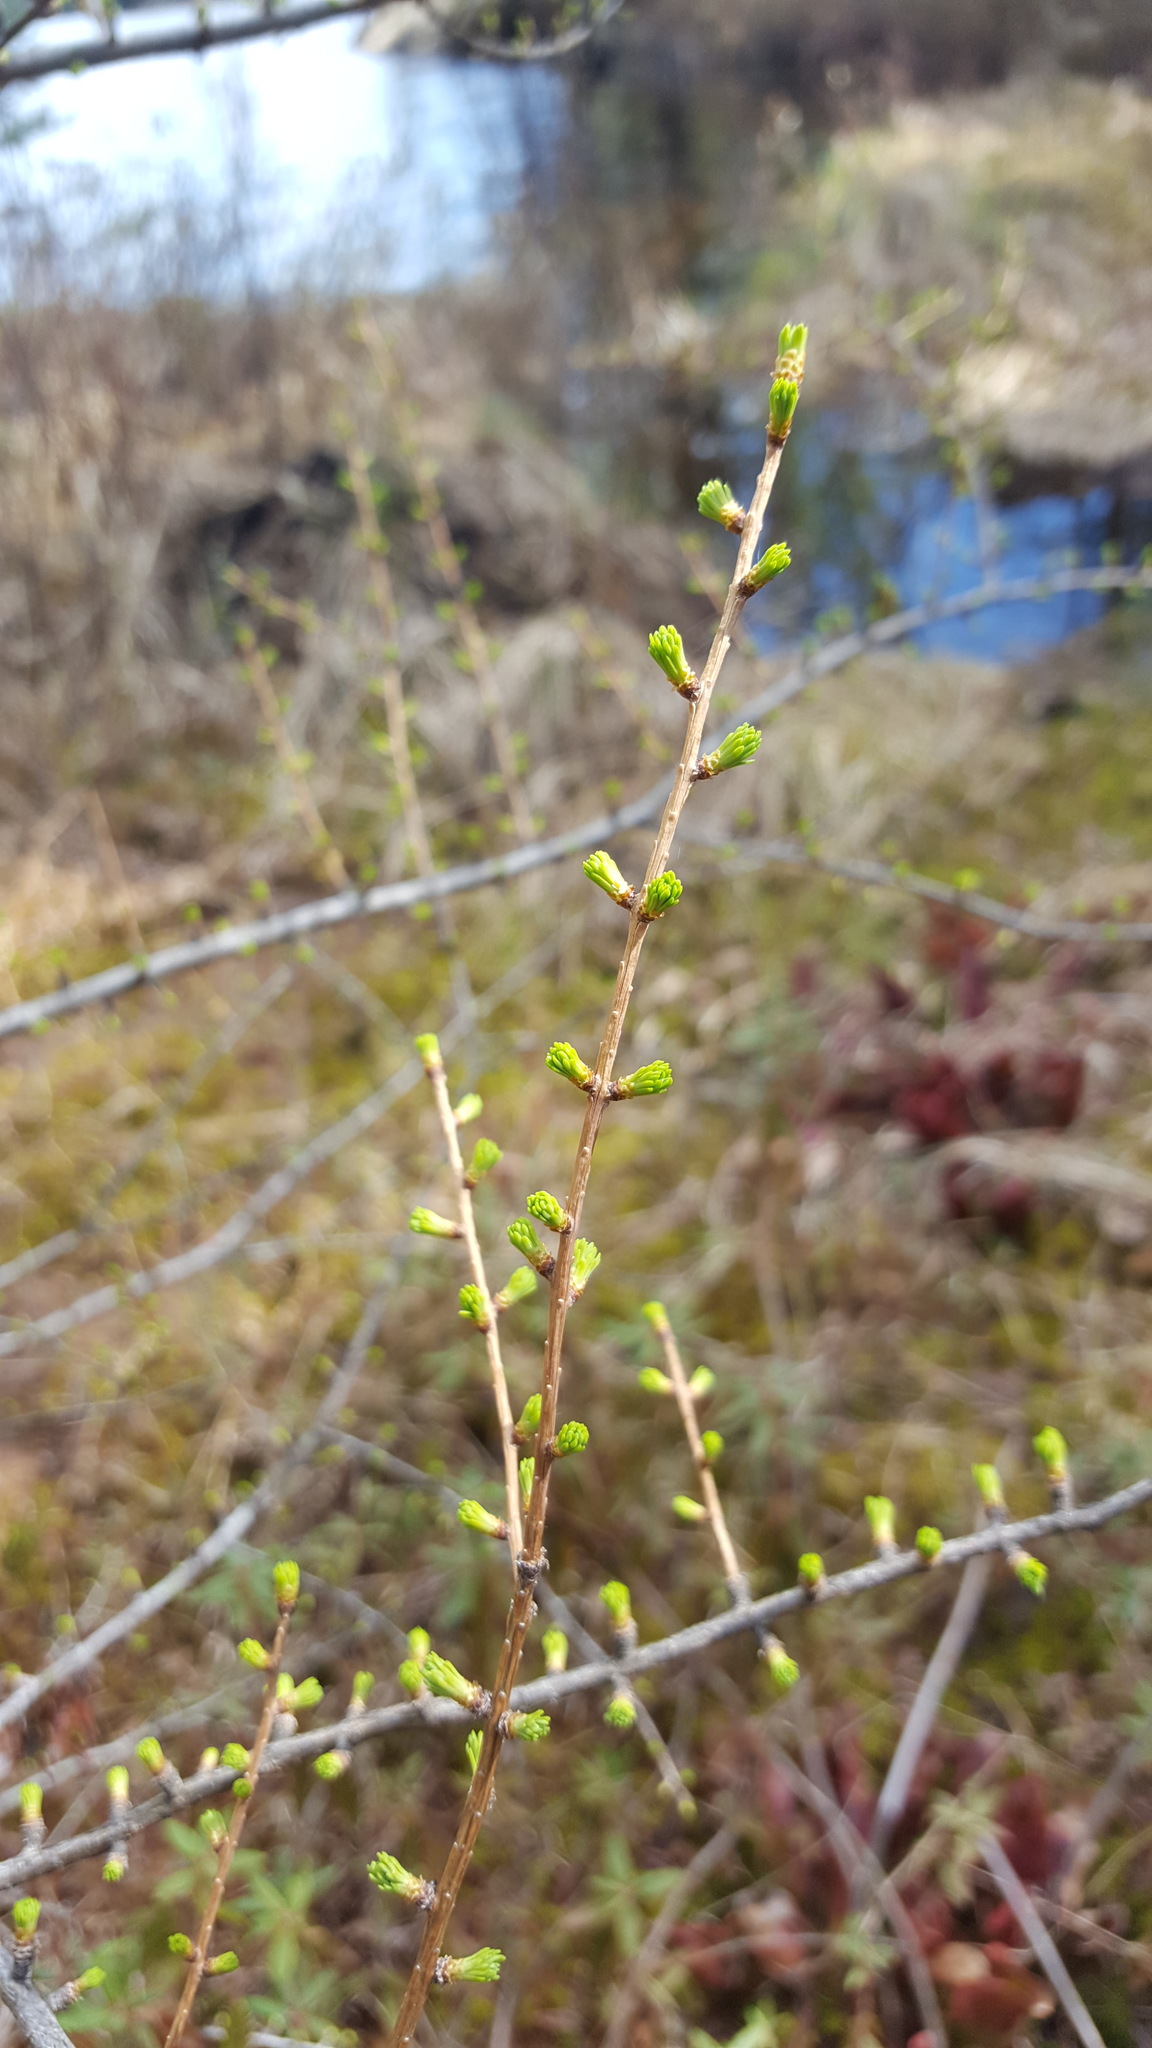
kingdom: Plantae
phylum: Tracheophyta
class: Pinopsida
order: Pinales
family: Pinaceae
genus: Larix
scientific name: Larix laricina
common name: American larch
